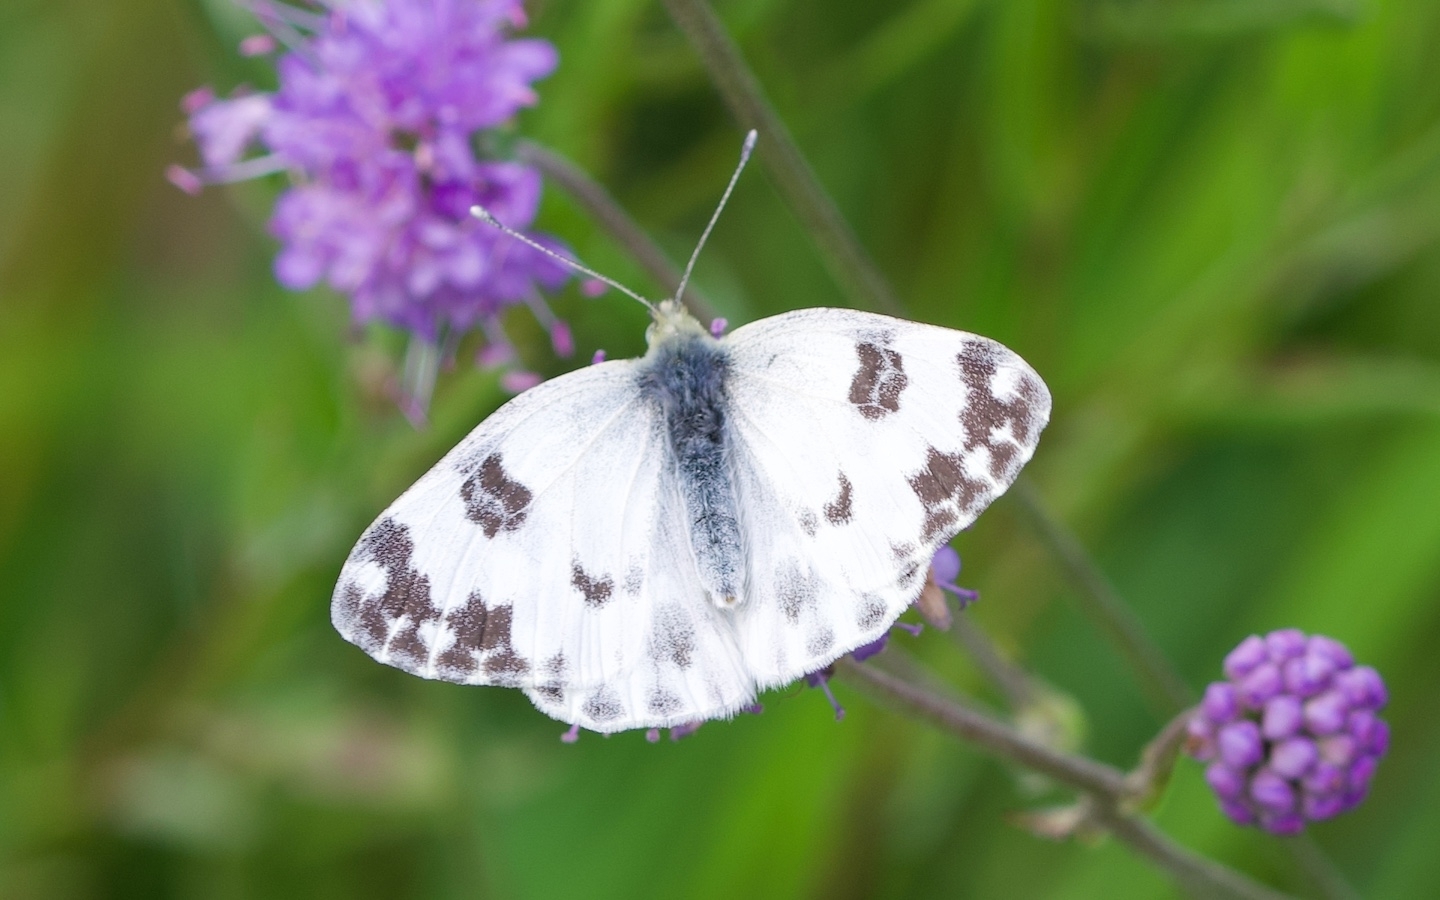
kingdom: Animalia
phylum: Arthropoda
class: Insecta
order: Lepidoptera
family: Pieridae
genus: Pontia
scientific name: Pontia edusa
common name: Eastern bath white
